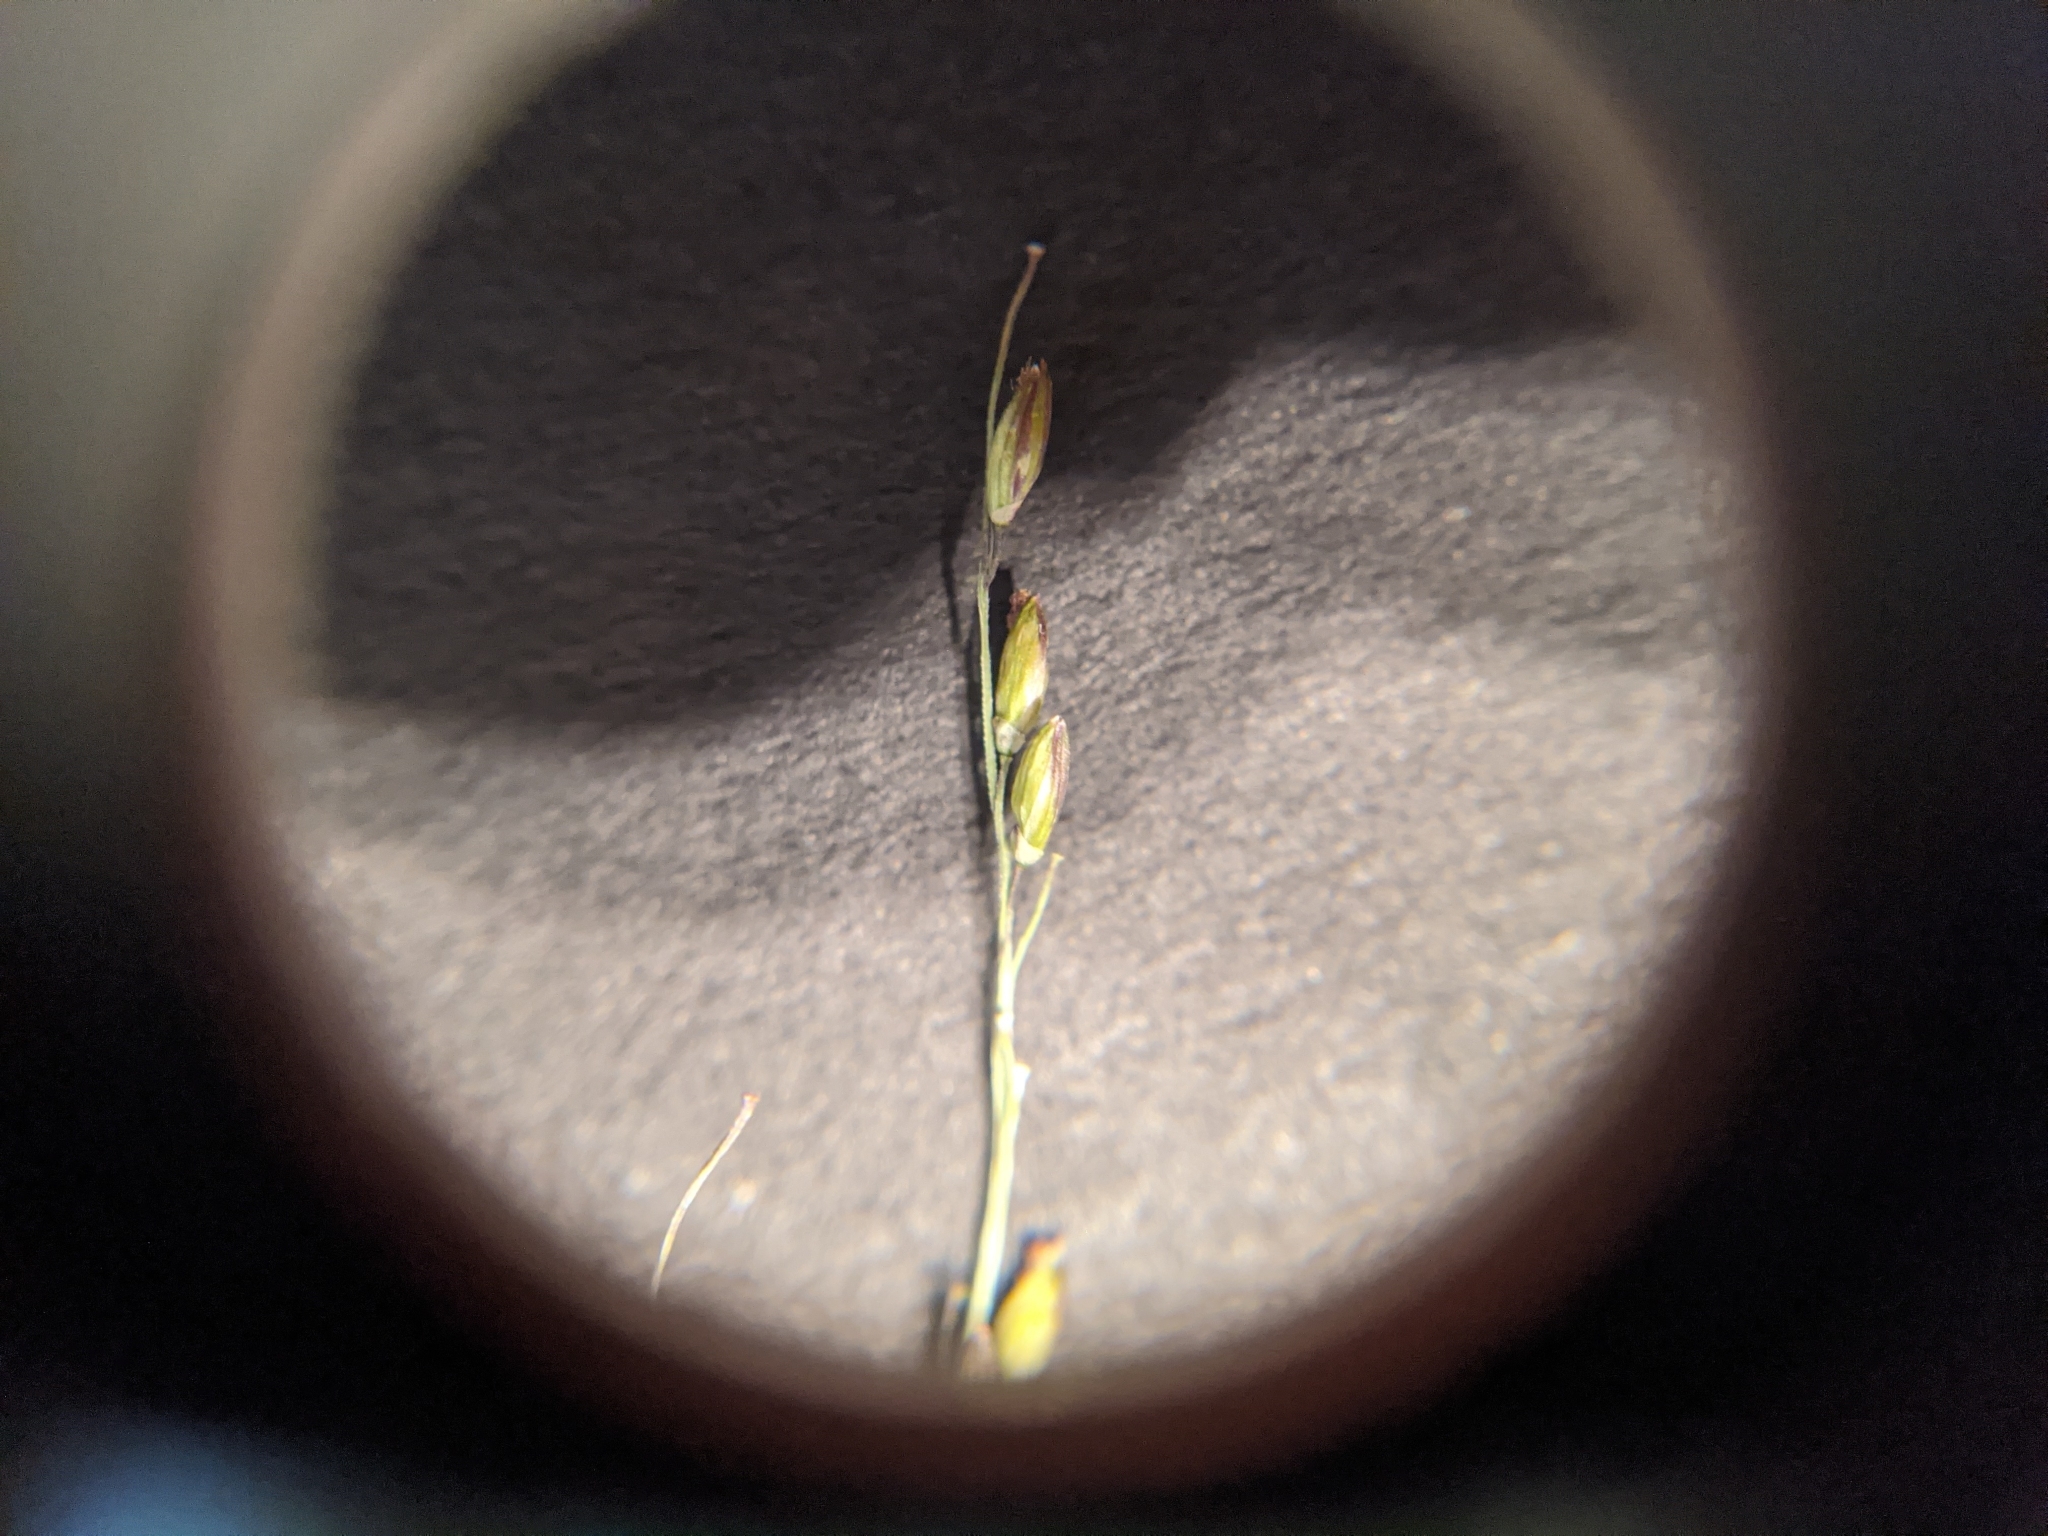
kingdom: Plantae
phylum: Tracheophyta
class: Liliopsida
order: Poales
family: Poaceae
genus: Megathyrsus
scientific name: Megathyrsus maximus
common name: Guineagrass
